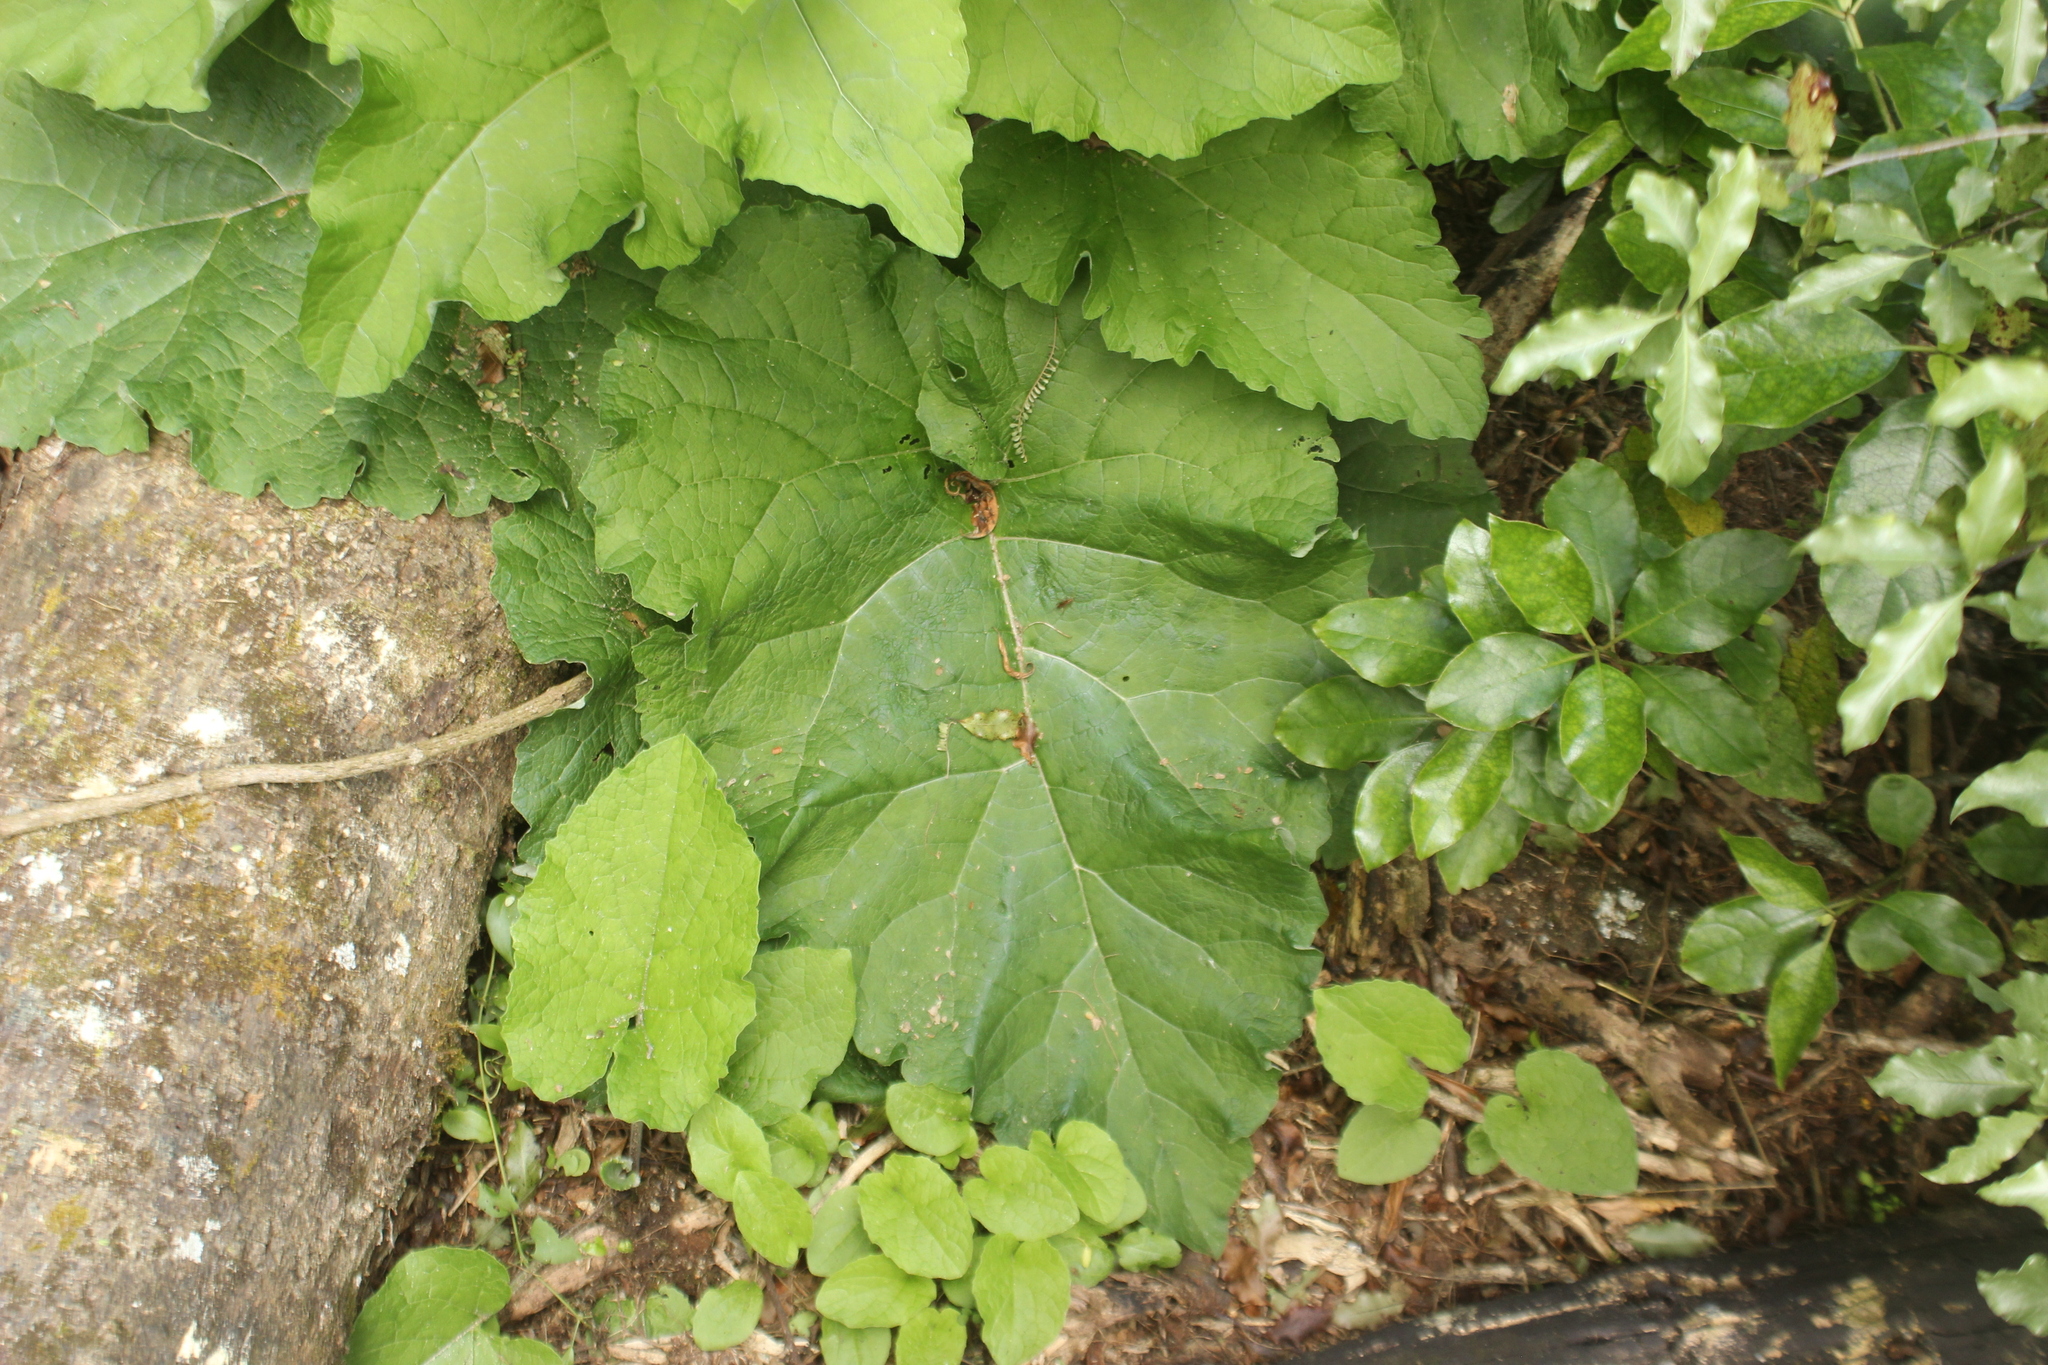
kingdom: Plantae
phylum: Tracheophyta
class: Magnoliopsida
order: Asterales
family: Asteraceae
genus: Arctium
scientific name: Arctium minus
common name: Lesser burdock
